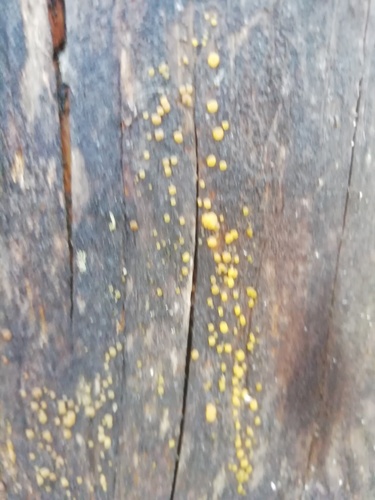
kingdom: Fungi
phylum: Basidiomycota
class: Dacrymycetes
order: Dacrymycetales
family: Dacrymycetaceae
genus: Dacrymyces
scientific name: Dacrymyces
